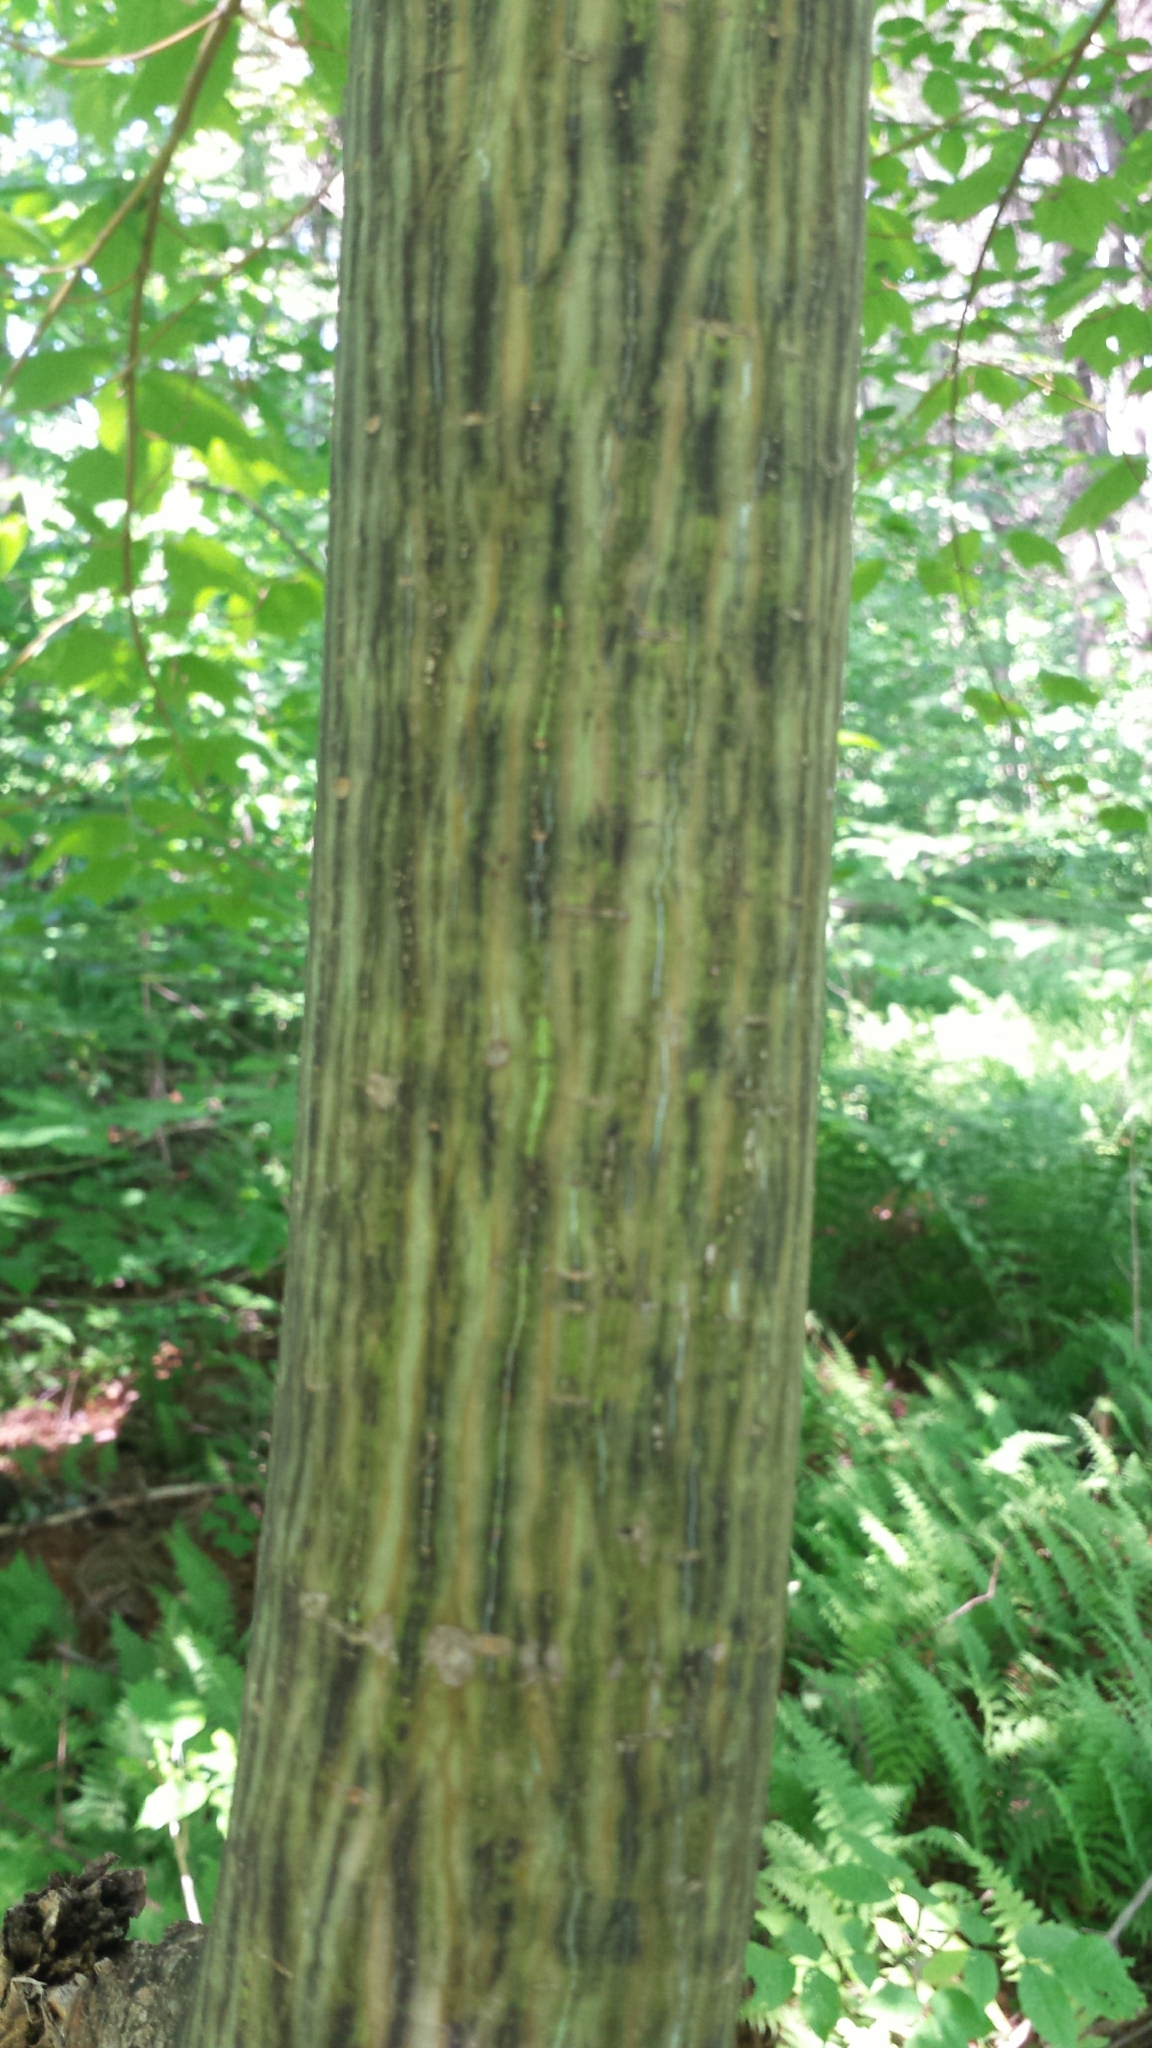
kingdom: Plantae
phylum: Tracheophyta
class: Magnoliopsida
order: Sapindales
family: Sapindaceae
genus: Acer
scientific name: Acer pensylvanicum
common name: Moosewood
